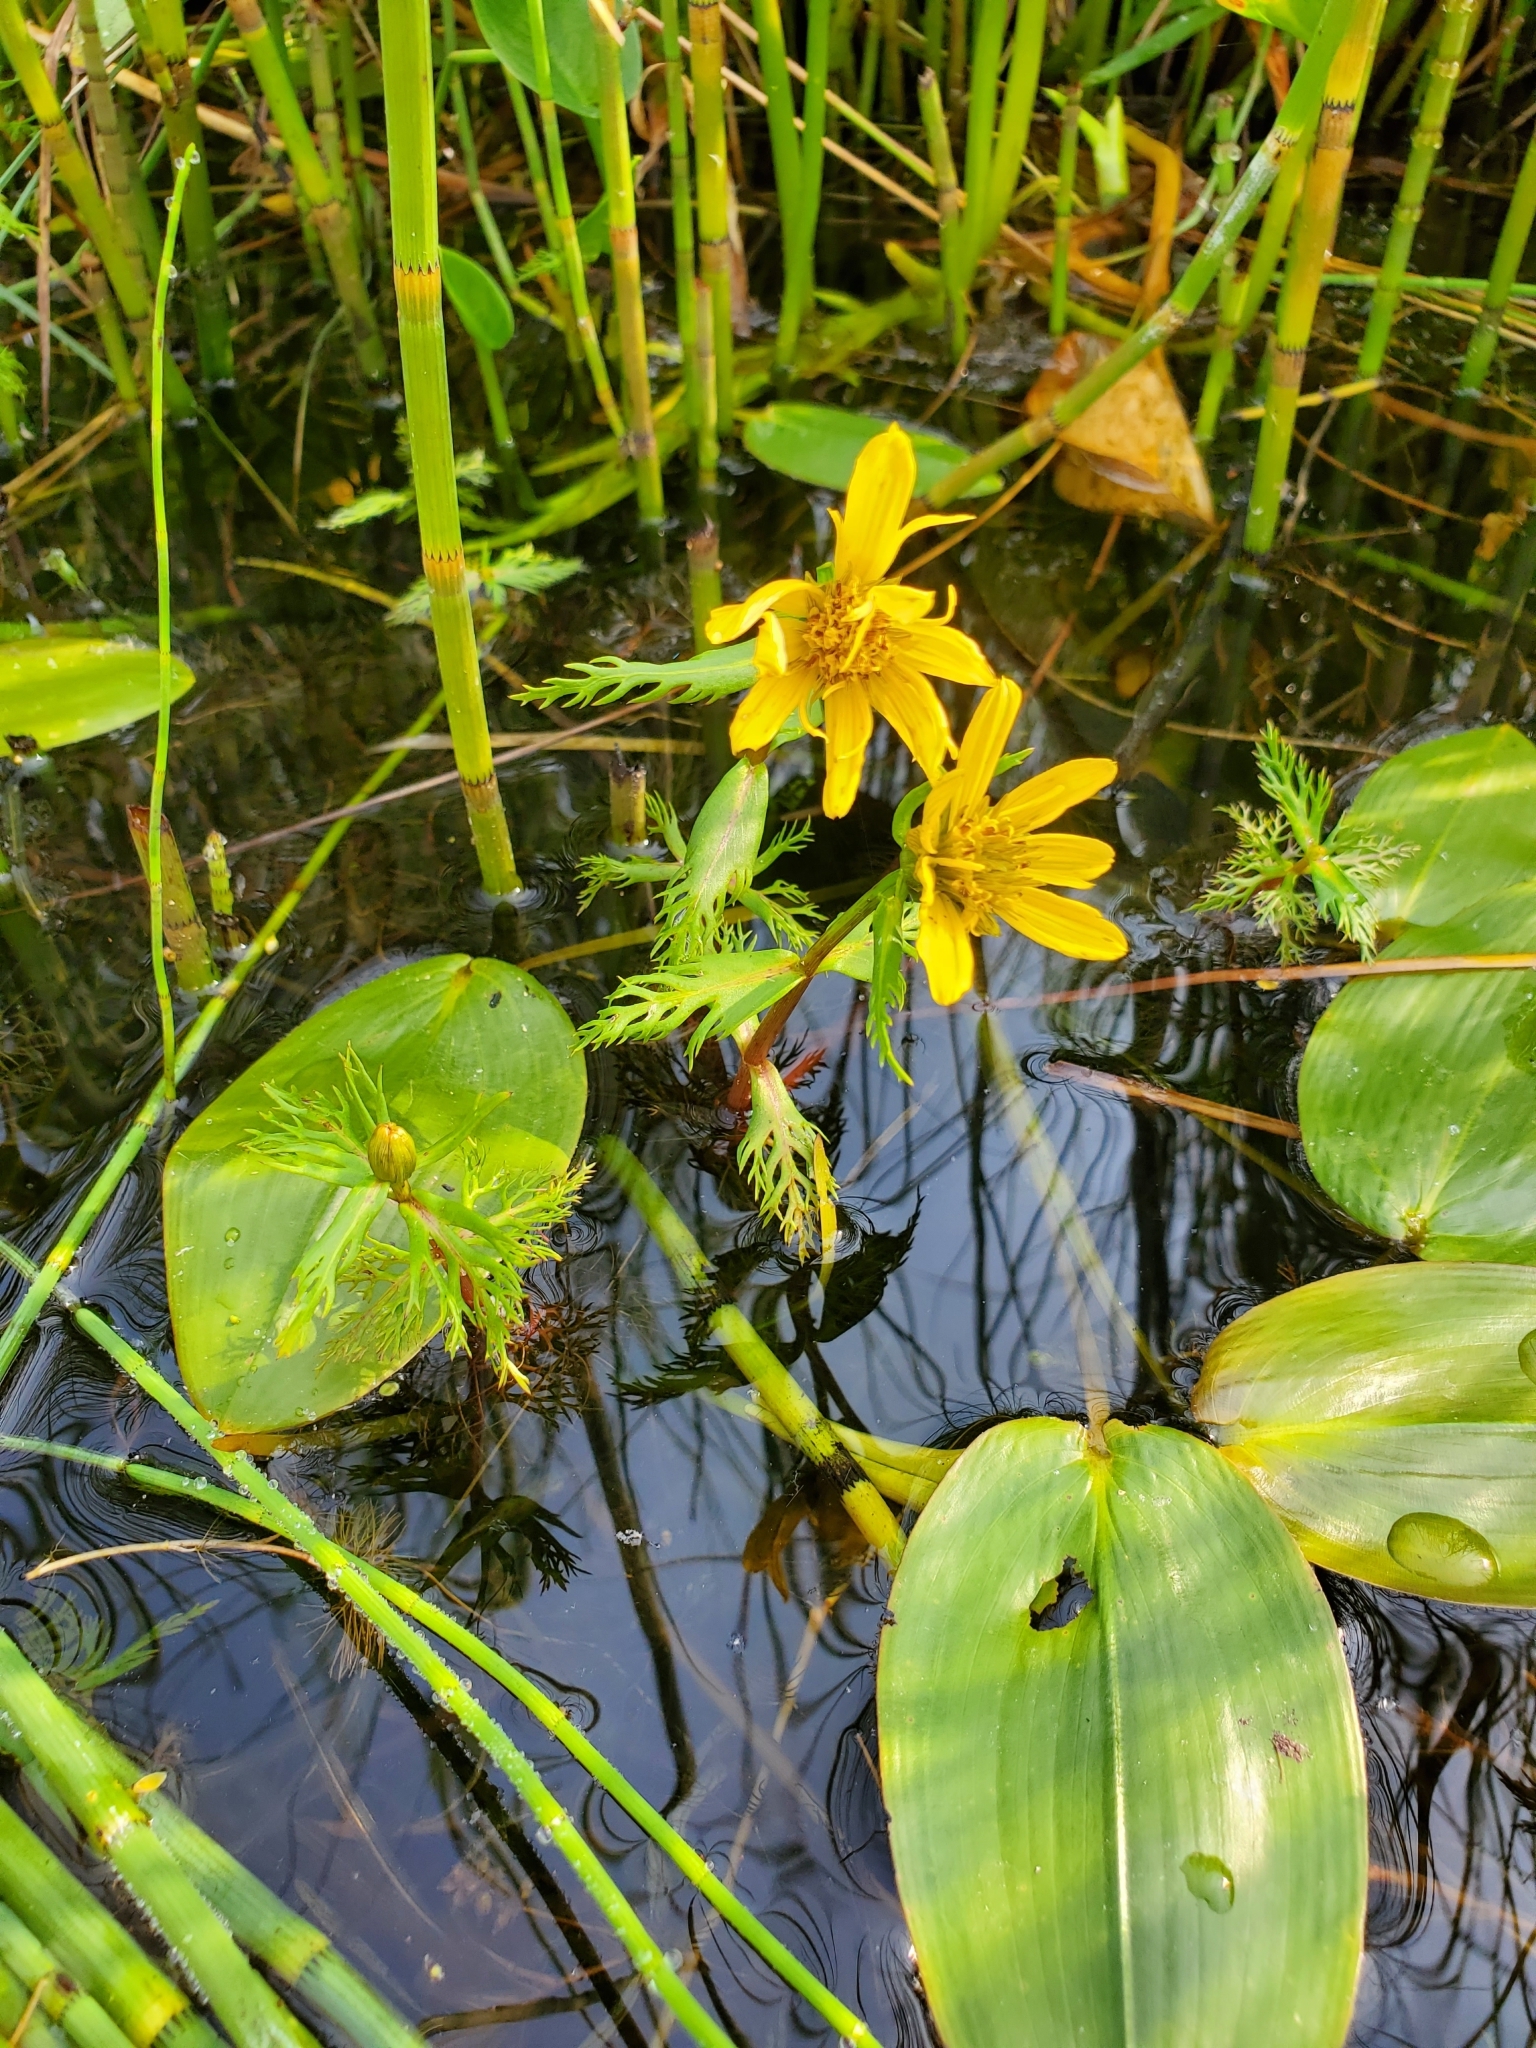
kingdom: Plantae
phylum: Tracheophyta
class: Magnoliopsida
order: Asterales
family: Asteraceae
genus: Bidens
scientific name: Bidens beckii
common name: Beck's beggarticks
